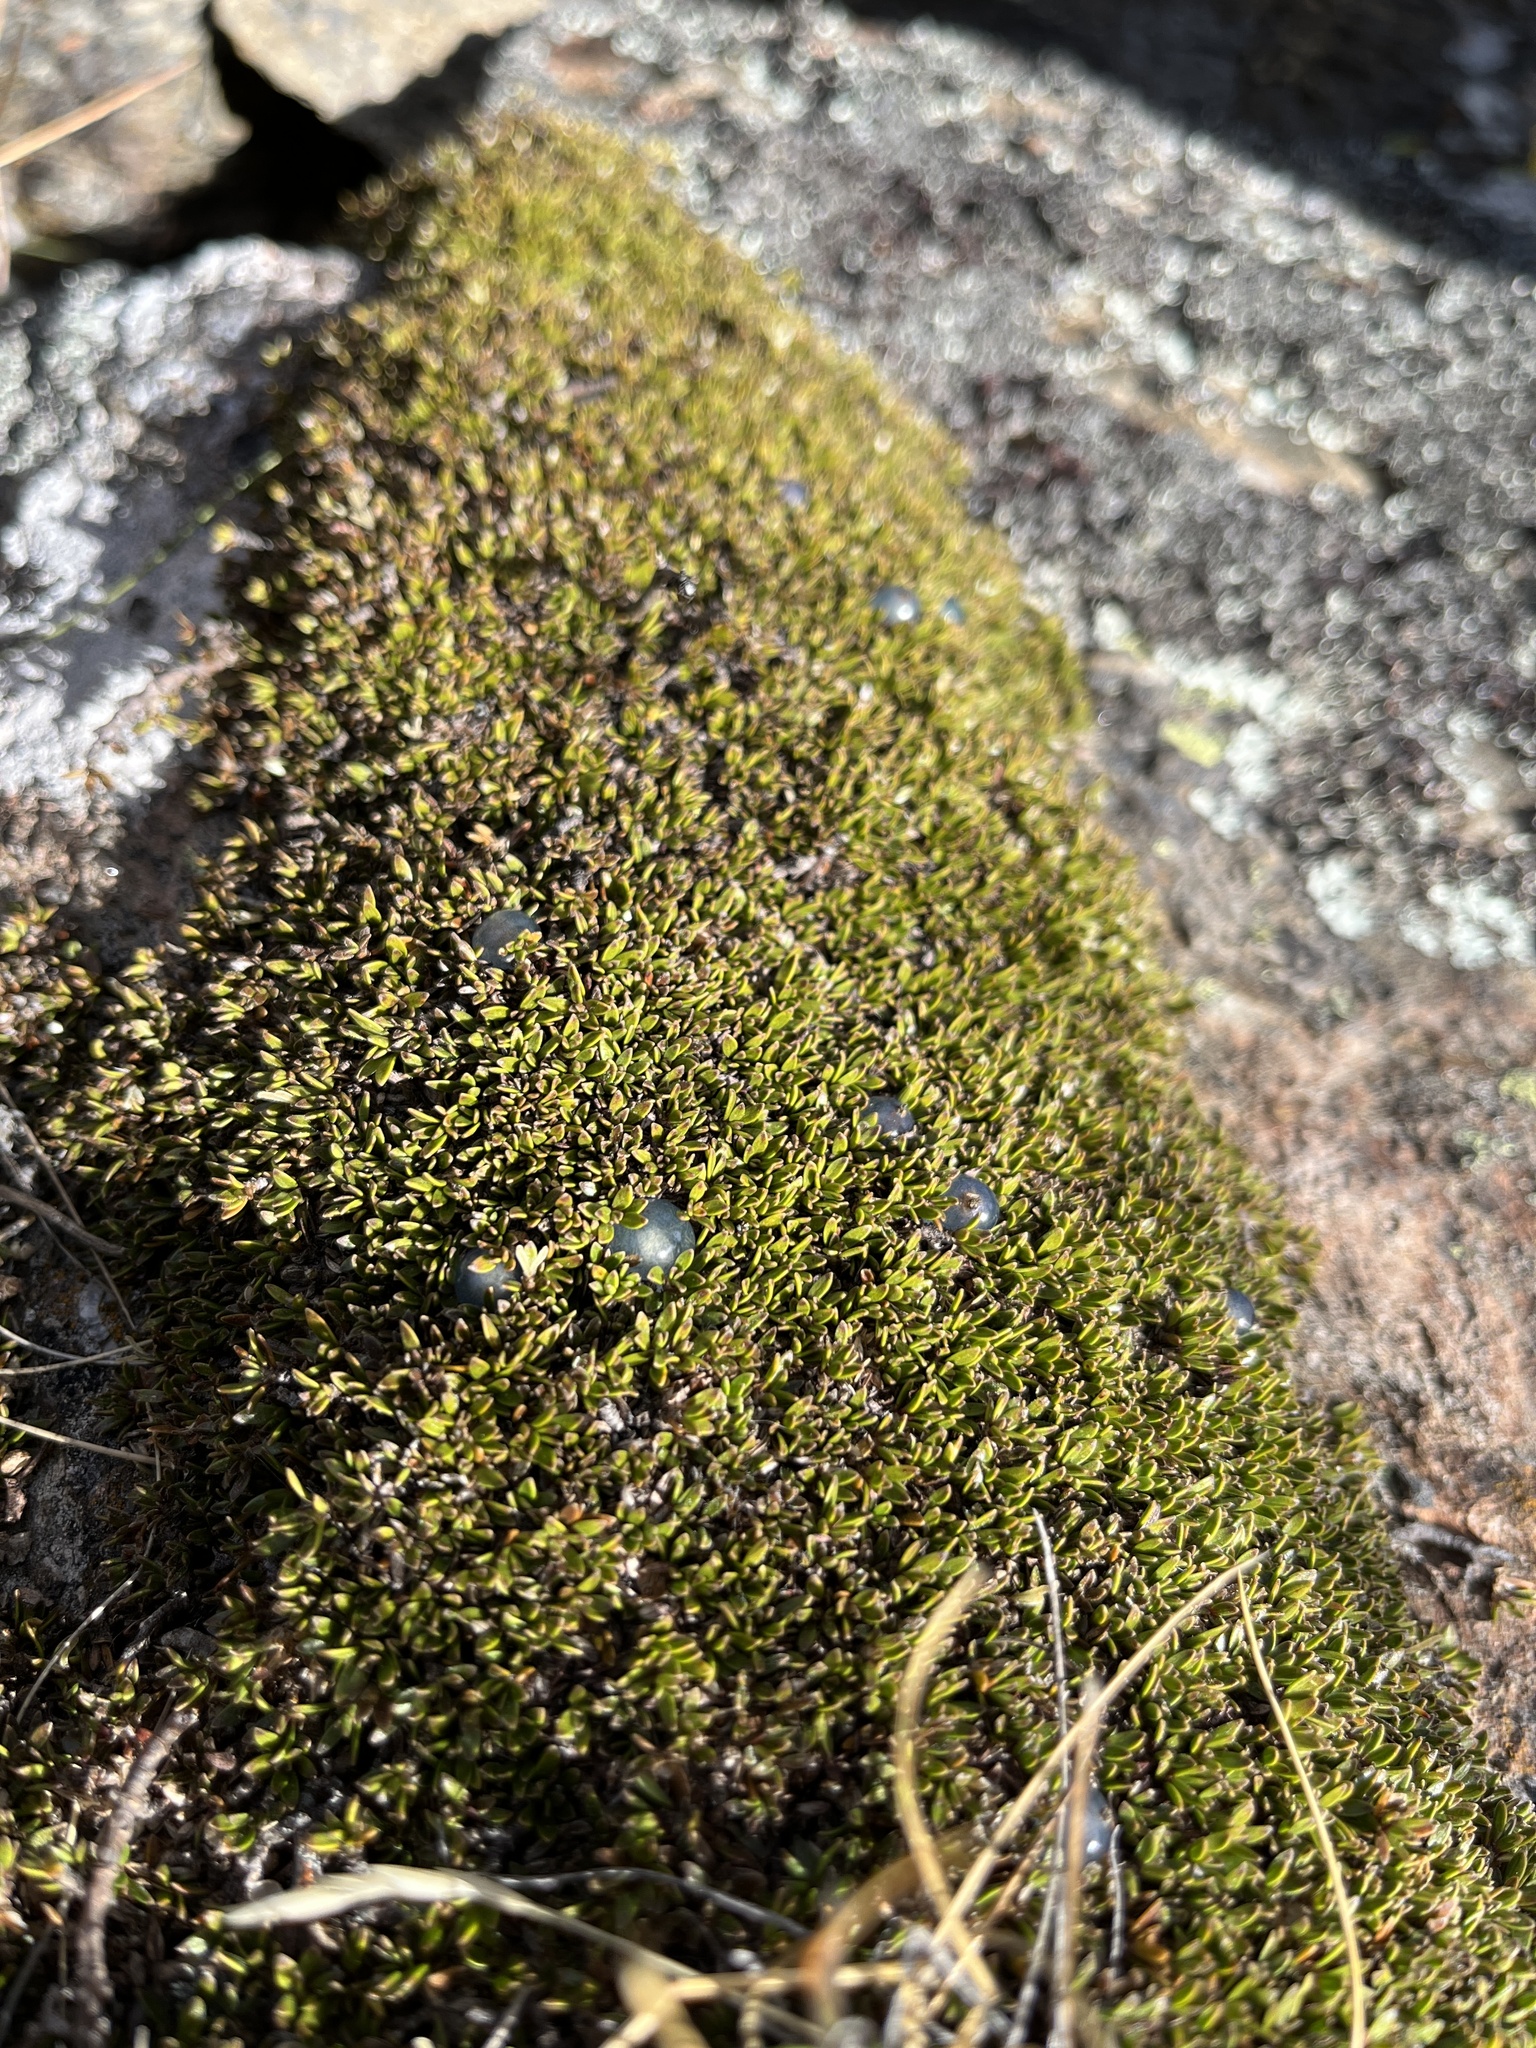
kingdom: Plantae
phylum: Tracheophyta
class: Magnoliopsida
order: Gentianales
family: Rubiaceae
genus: Coprosma
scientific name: Coprosma petriei
